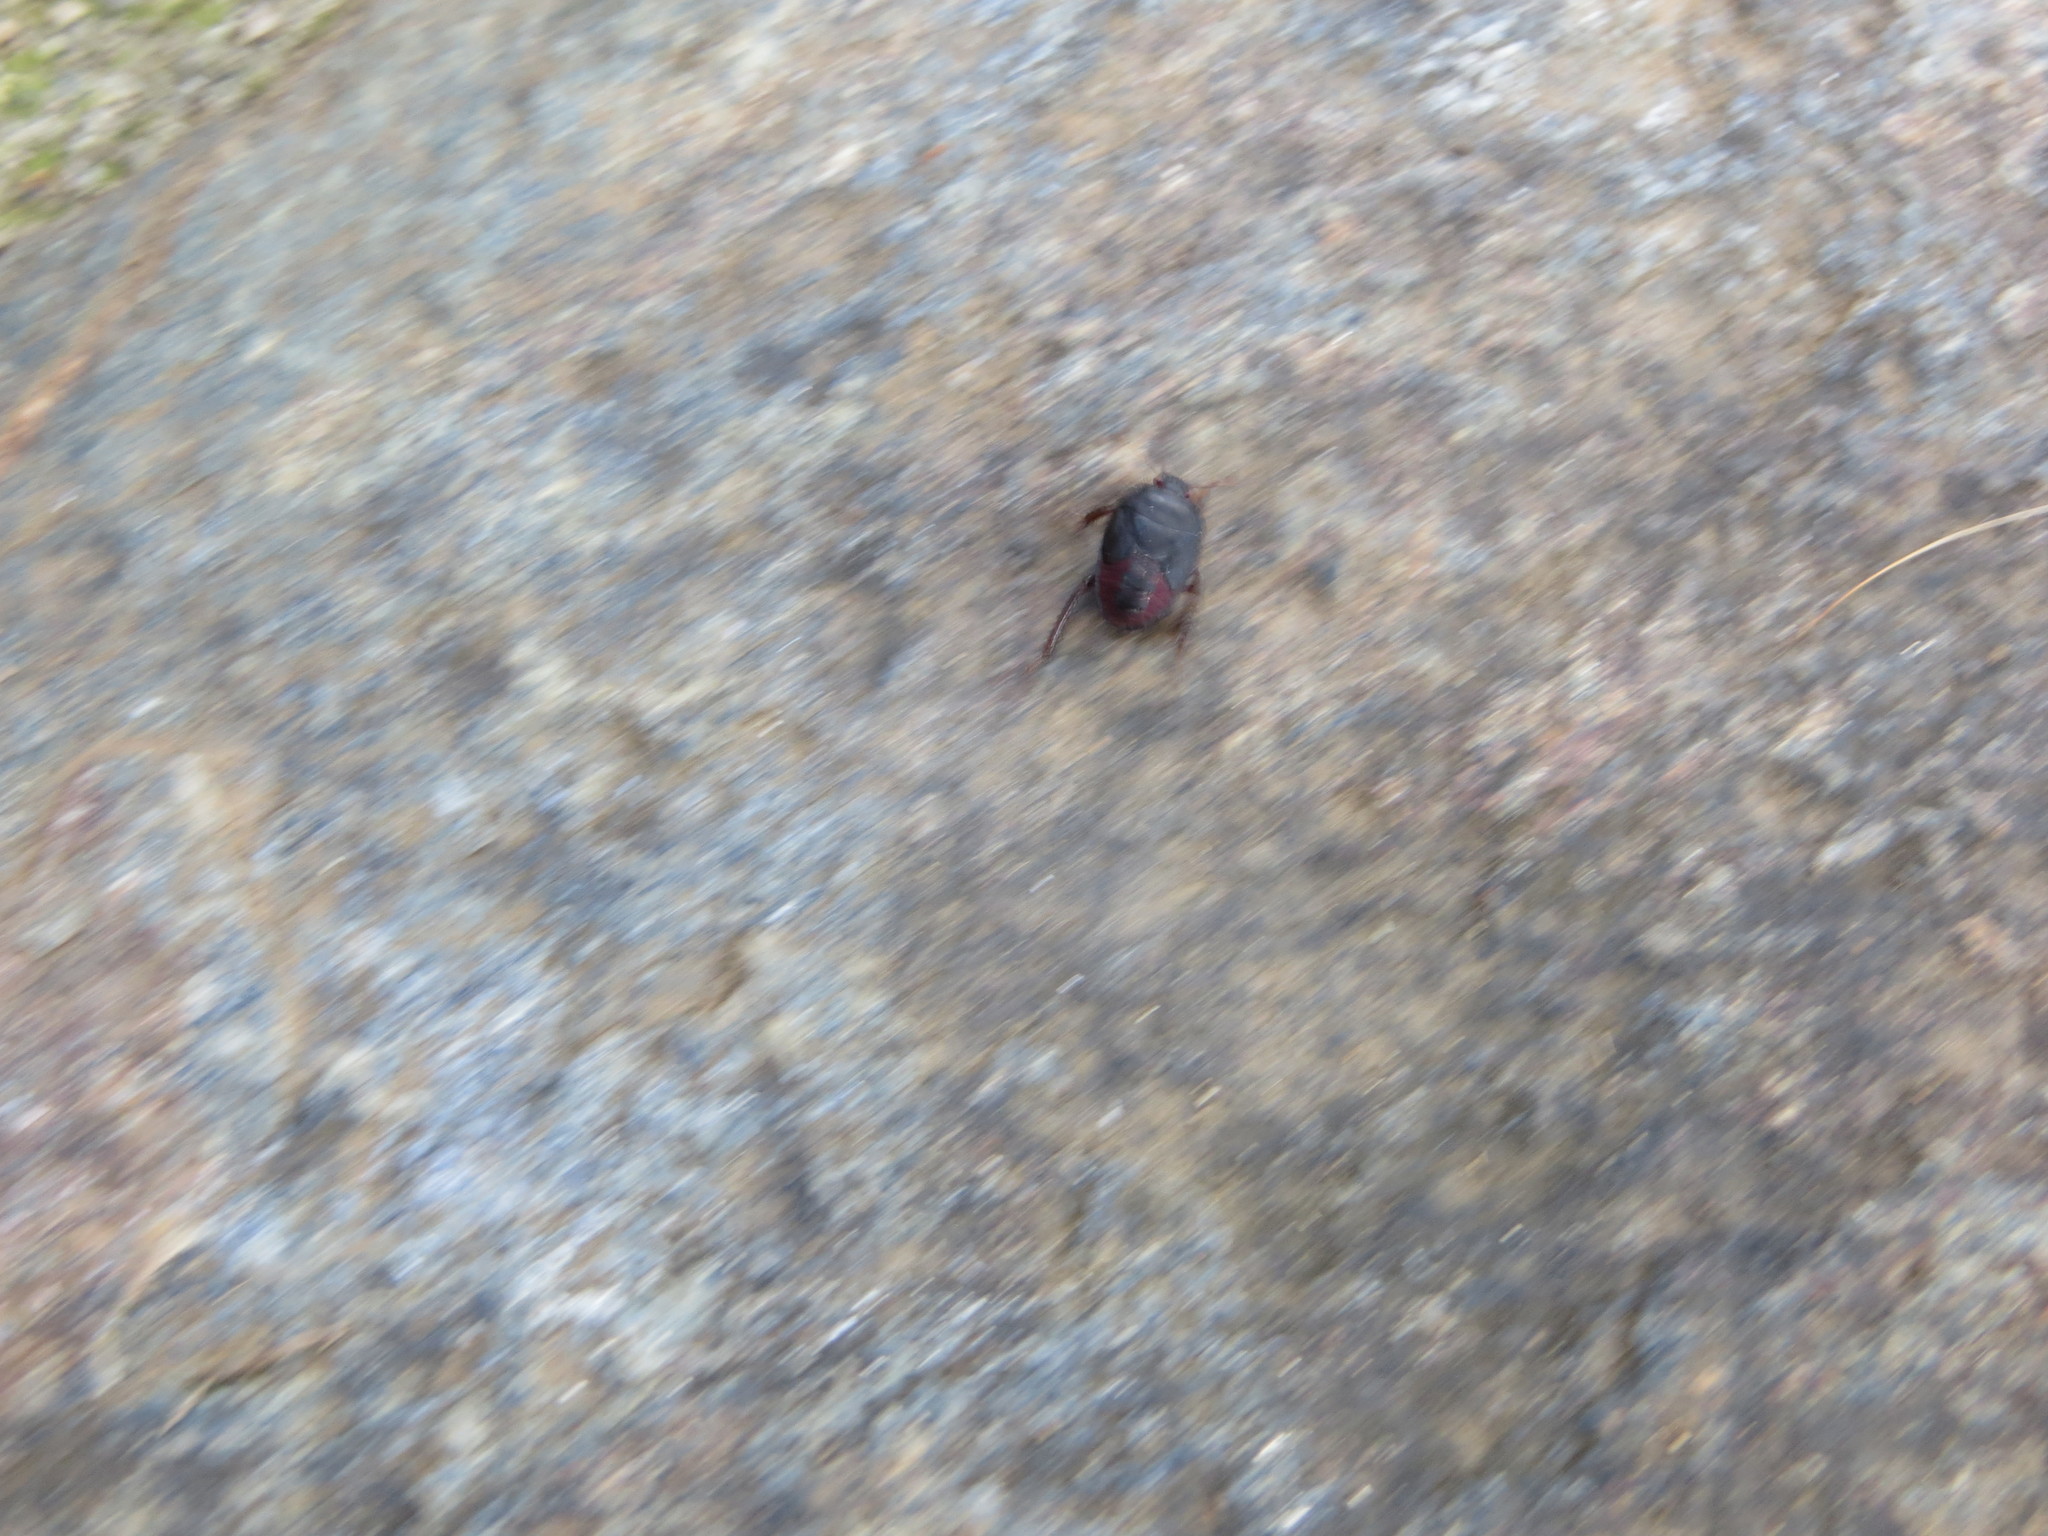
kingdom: Animalia
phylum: Arthropoda
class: Insecta
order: Hemiptera
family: Cydnidae
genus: Cydnus
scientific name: Cydnus aterrimus
